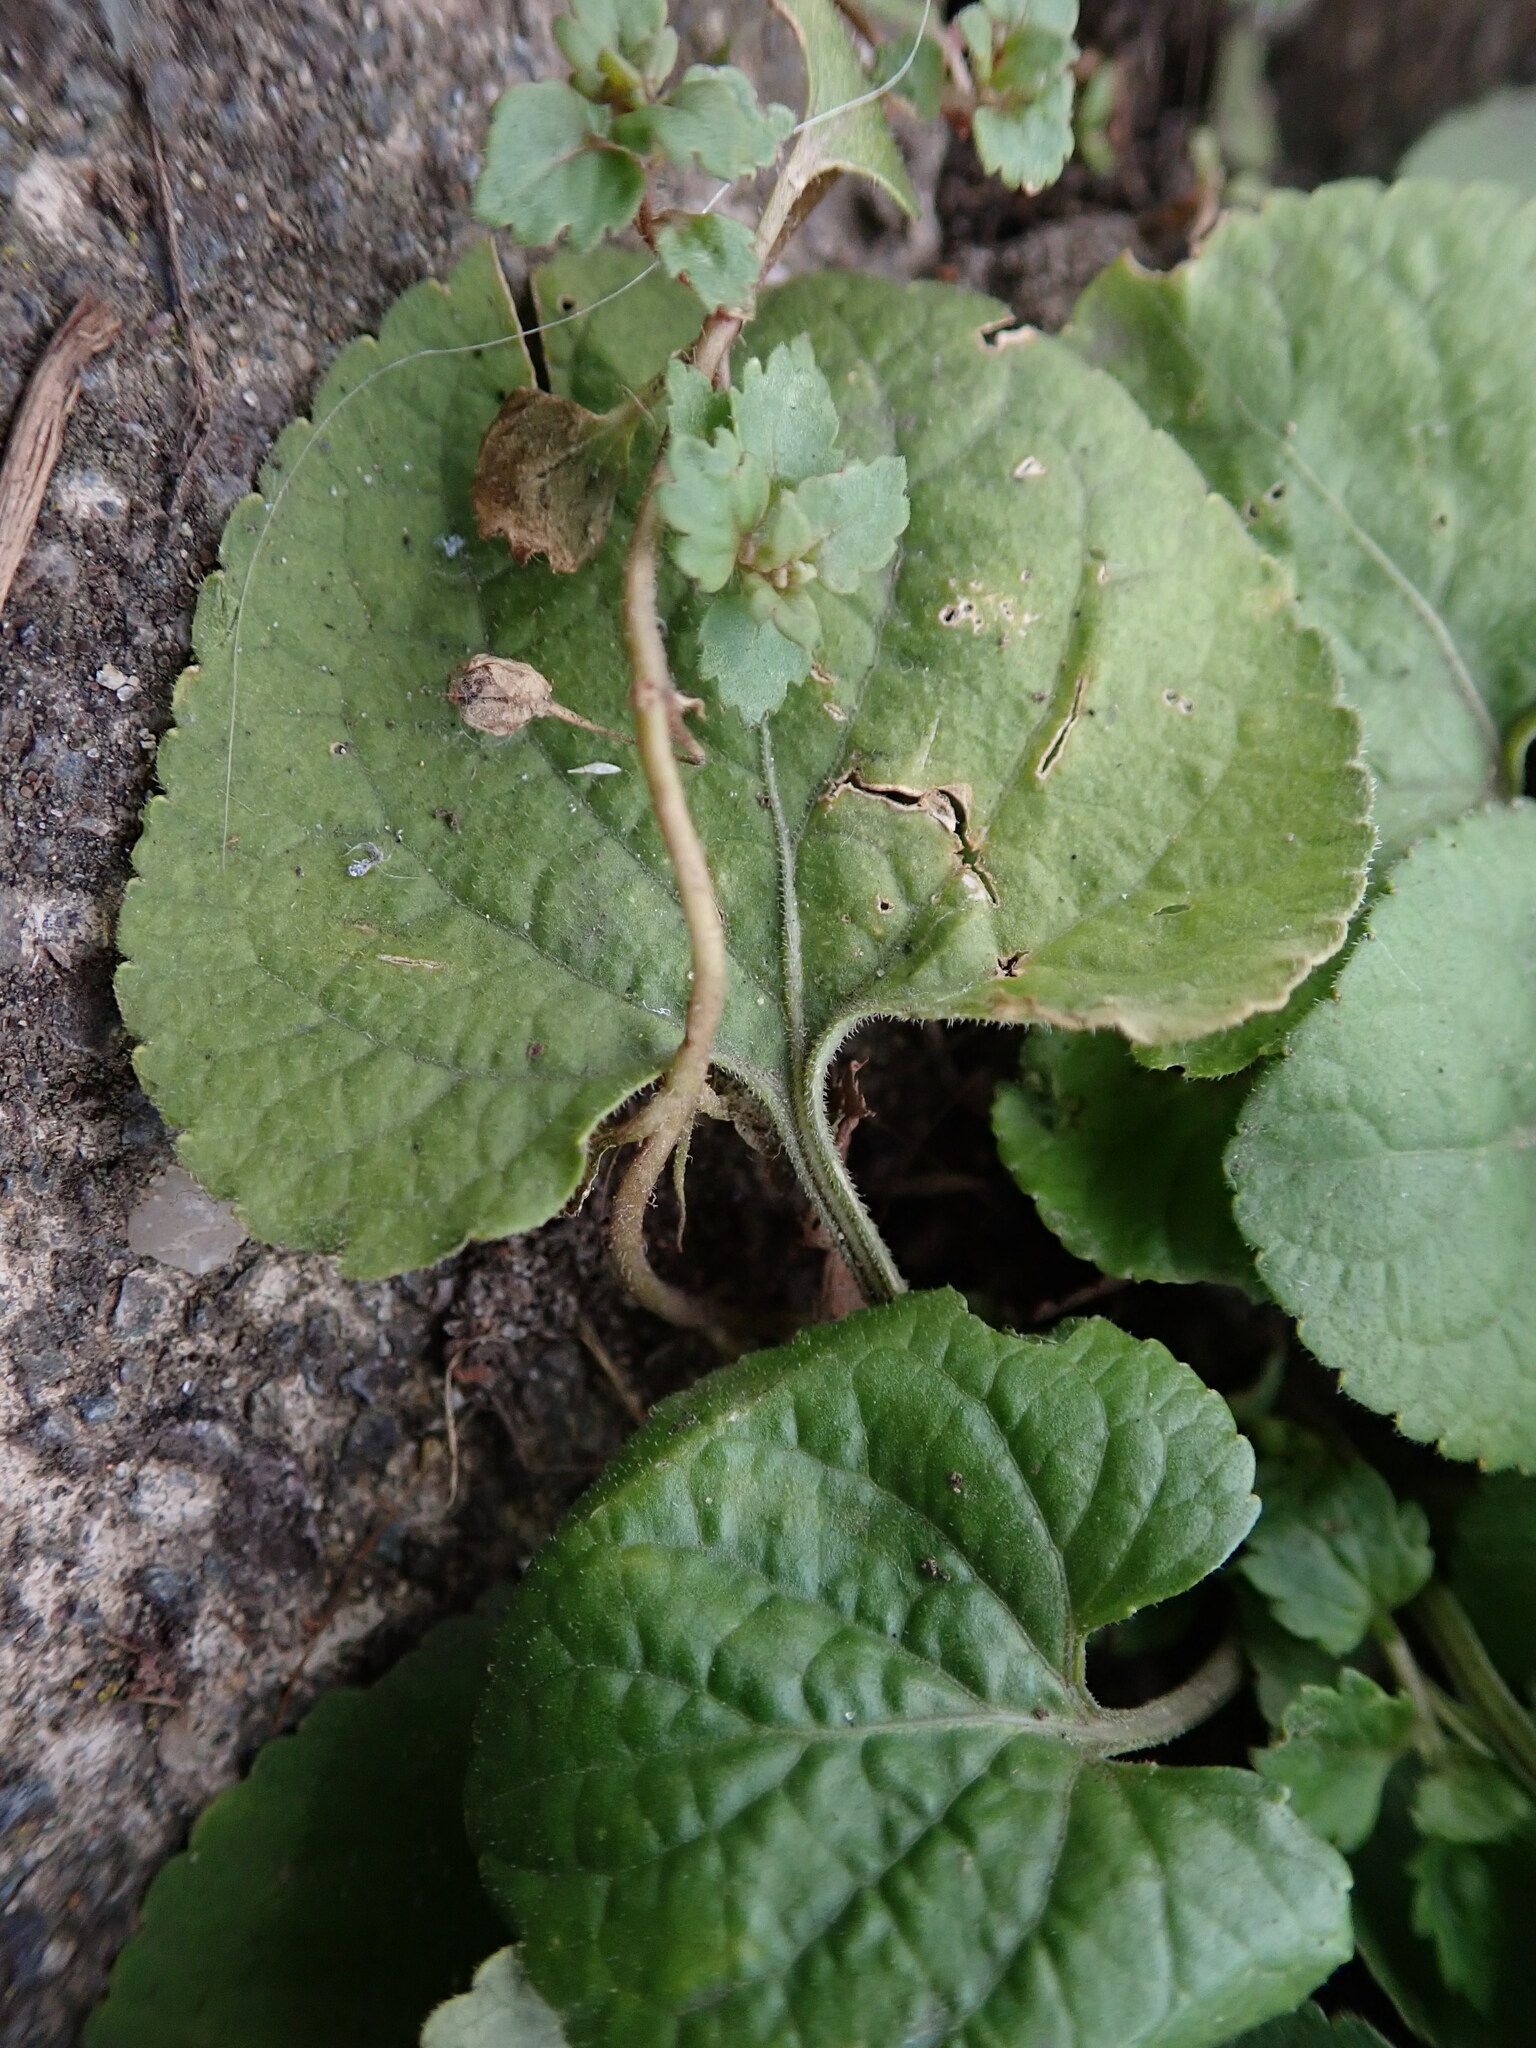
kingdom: Plantae
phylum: Tracheophyta
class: Magnoliopsida
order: Malpighiales
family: Violaceae
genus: Viola
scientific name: Viola odorata
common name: Sweet violet
